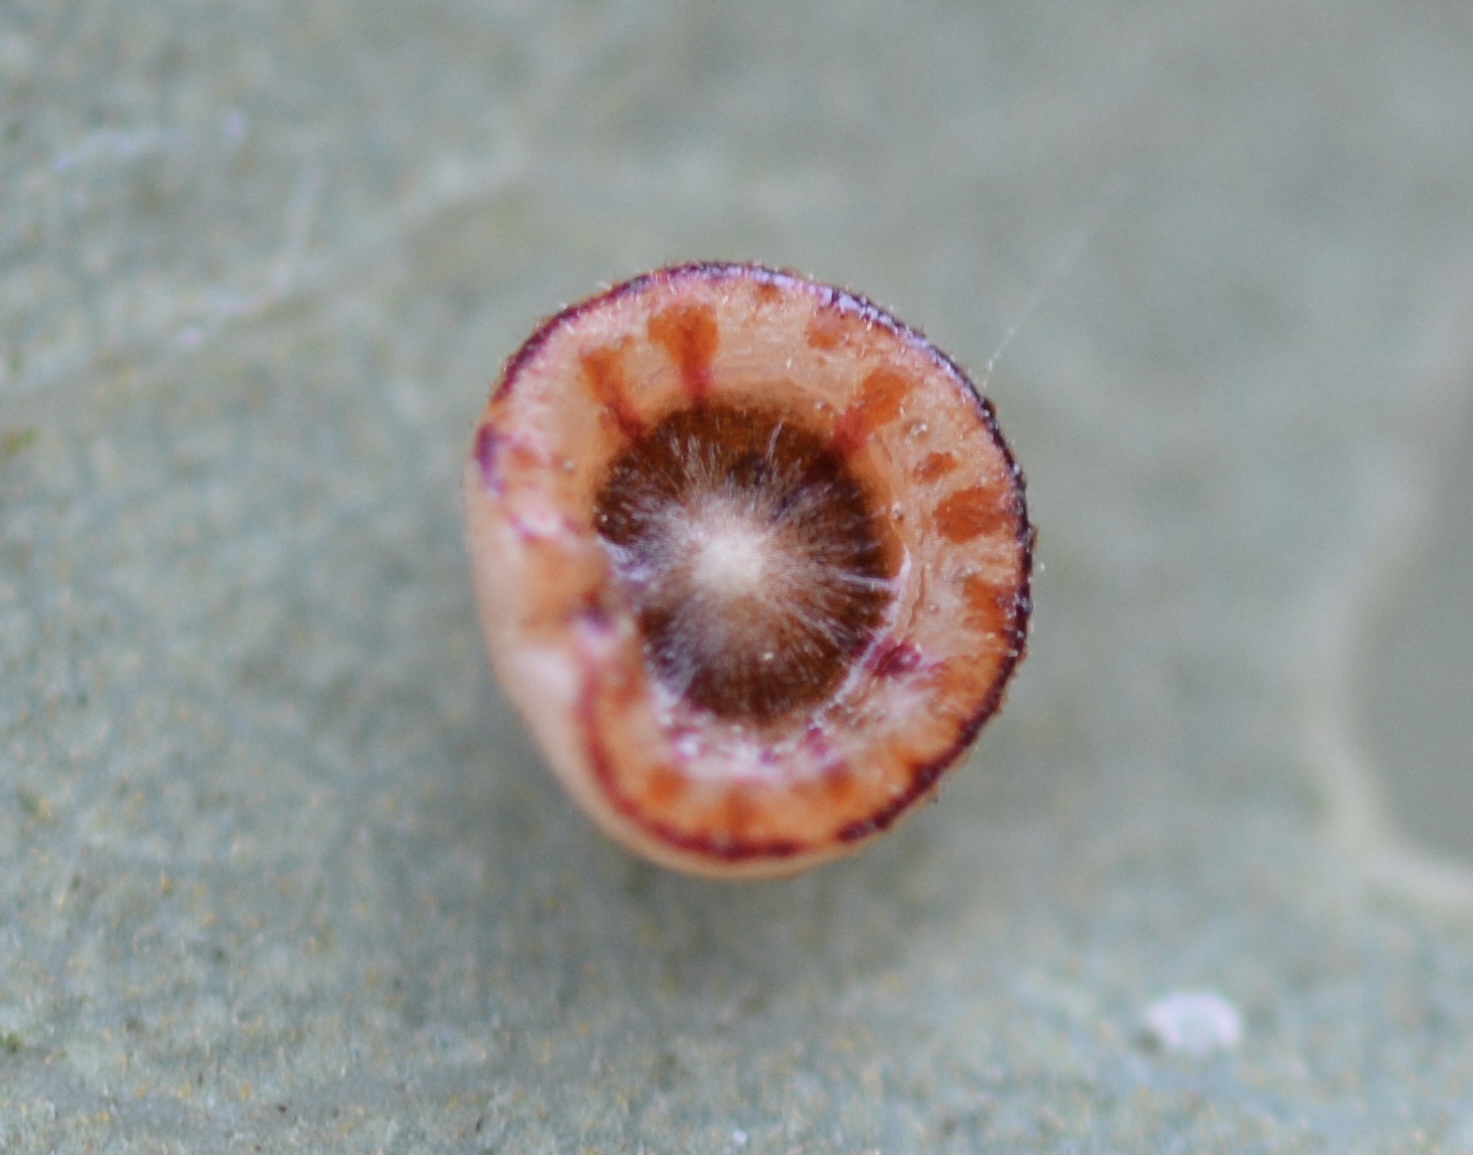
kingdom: Animalia
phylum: Arthropoda
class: Insecta
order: Hymenoptera
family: Cynipidae
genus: Andricus
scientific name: Andricus
